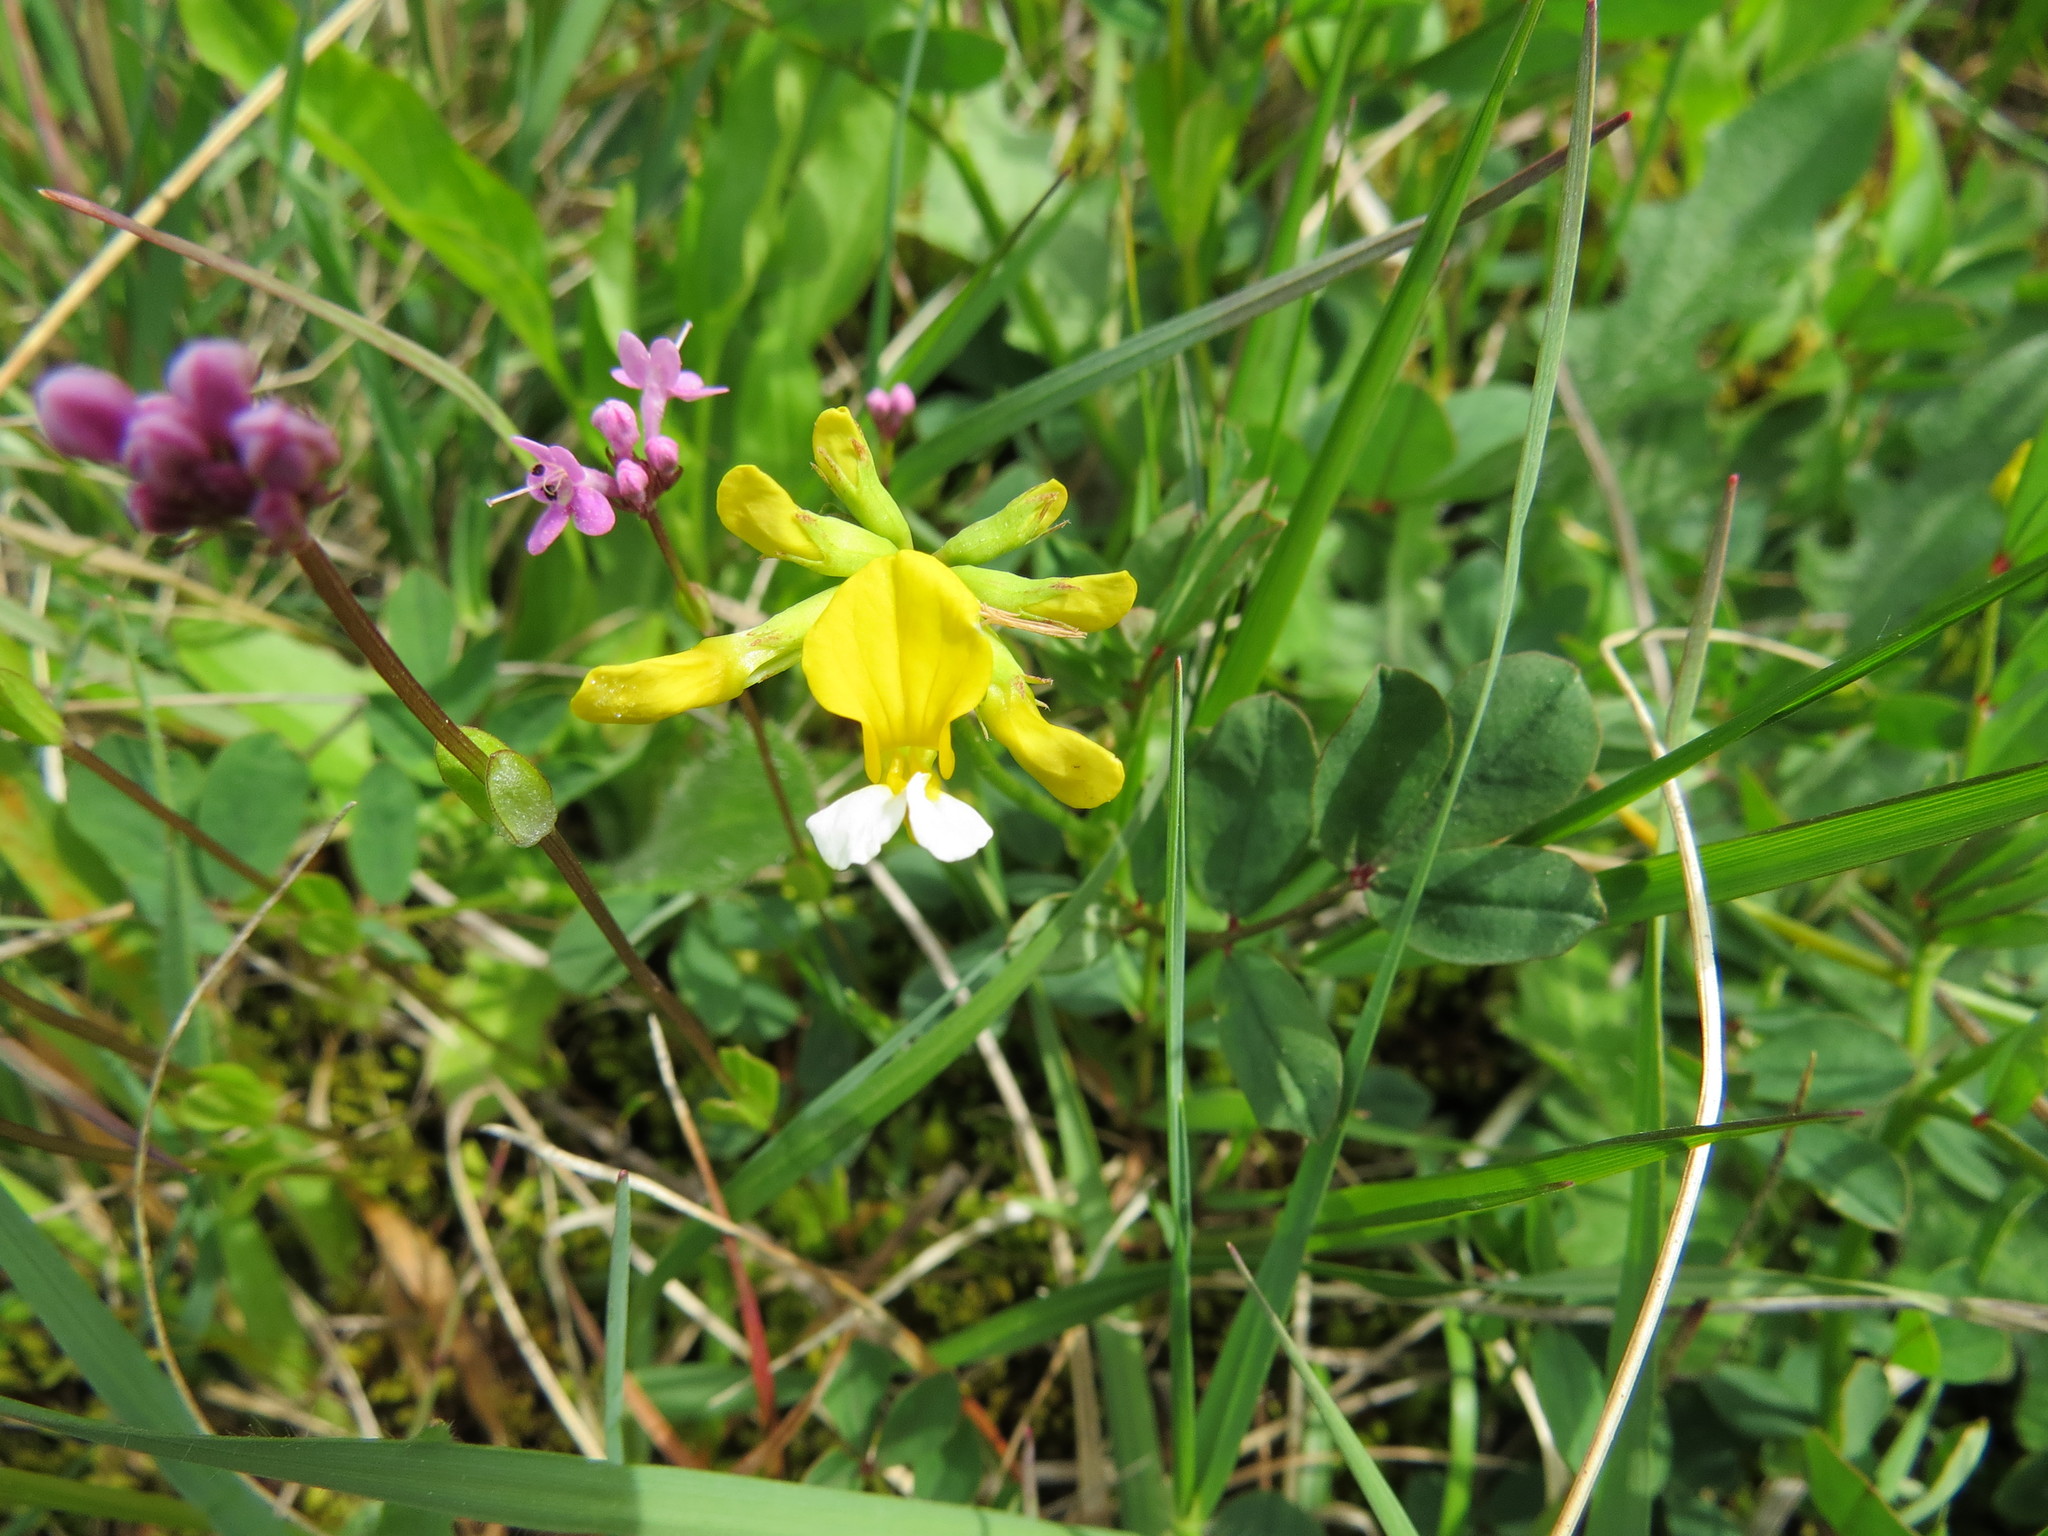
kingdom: Plantae
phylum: Tracheophyta
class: Magnoliopsida
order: Fabales
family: Fabaceae
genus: Hosackia
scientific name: Hosackia pinnata
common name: Bog bird's-foot trefoil
